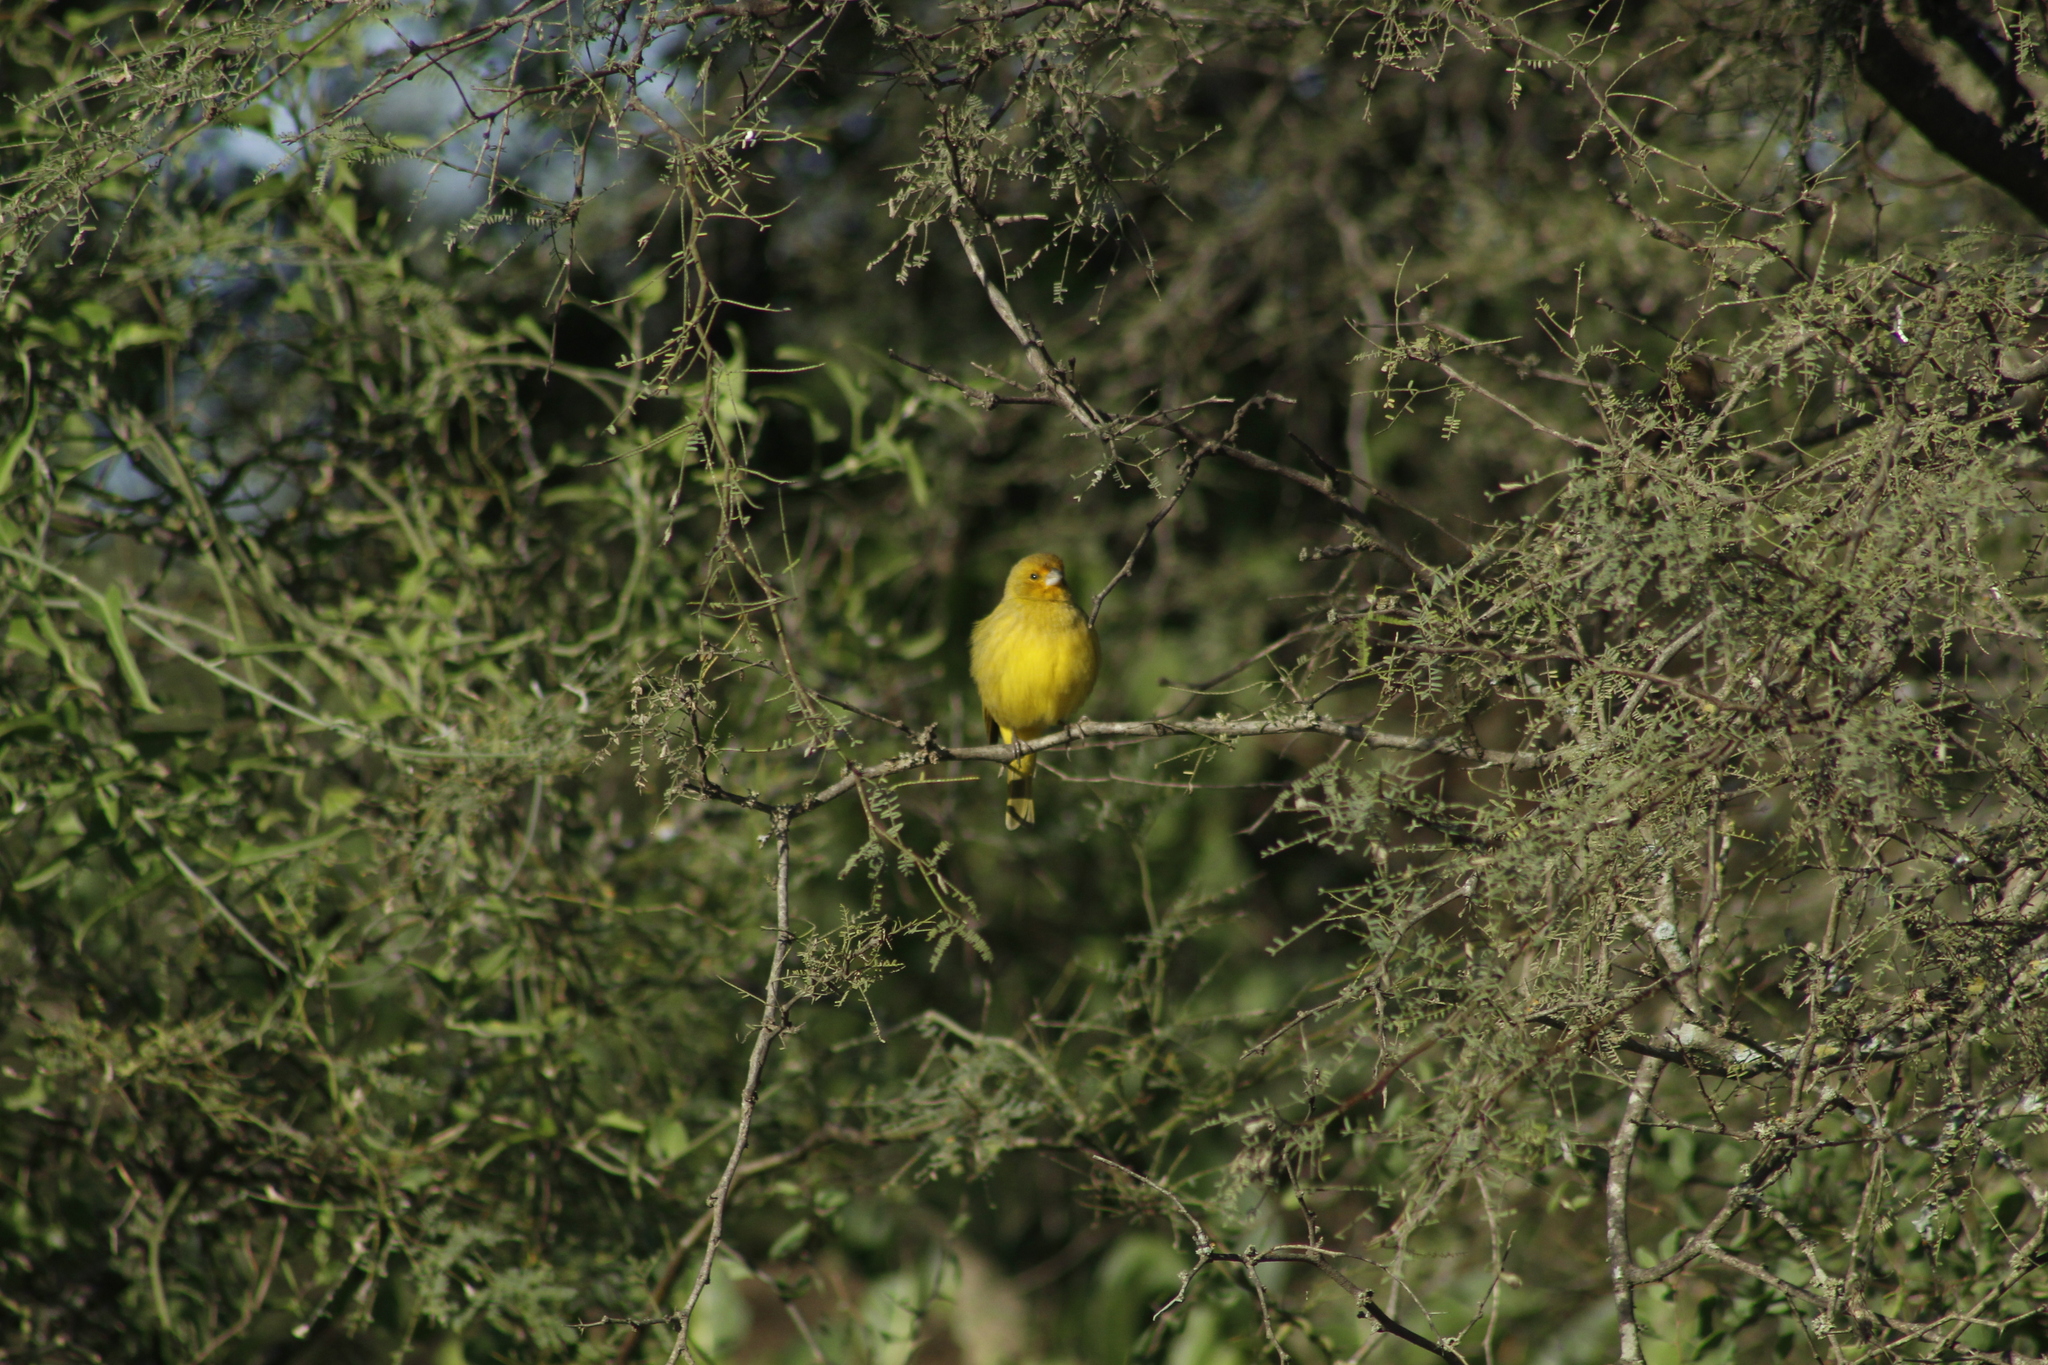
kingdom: Animalia
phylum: Chordata
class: Aves
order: Passeriformes
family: Thraupidae
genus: Sicalis
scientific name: Sicalis flaveola
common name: Saffron finch
